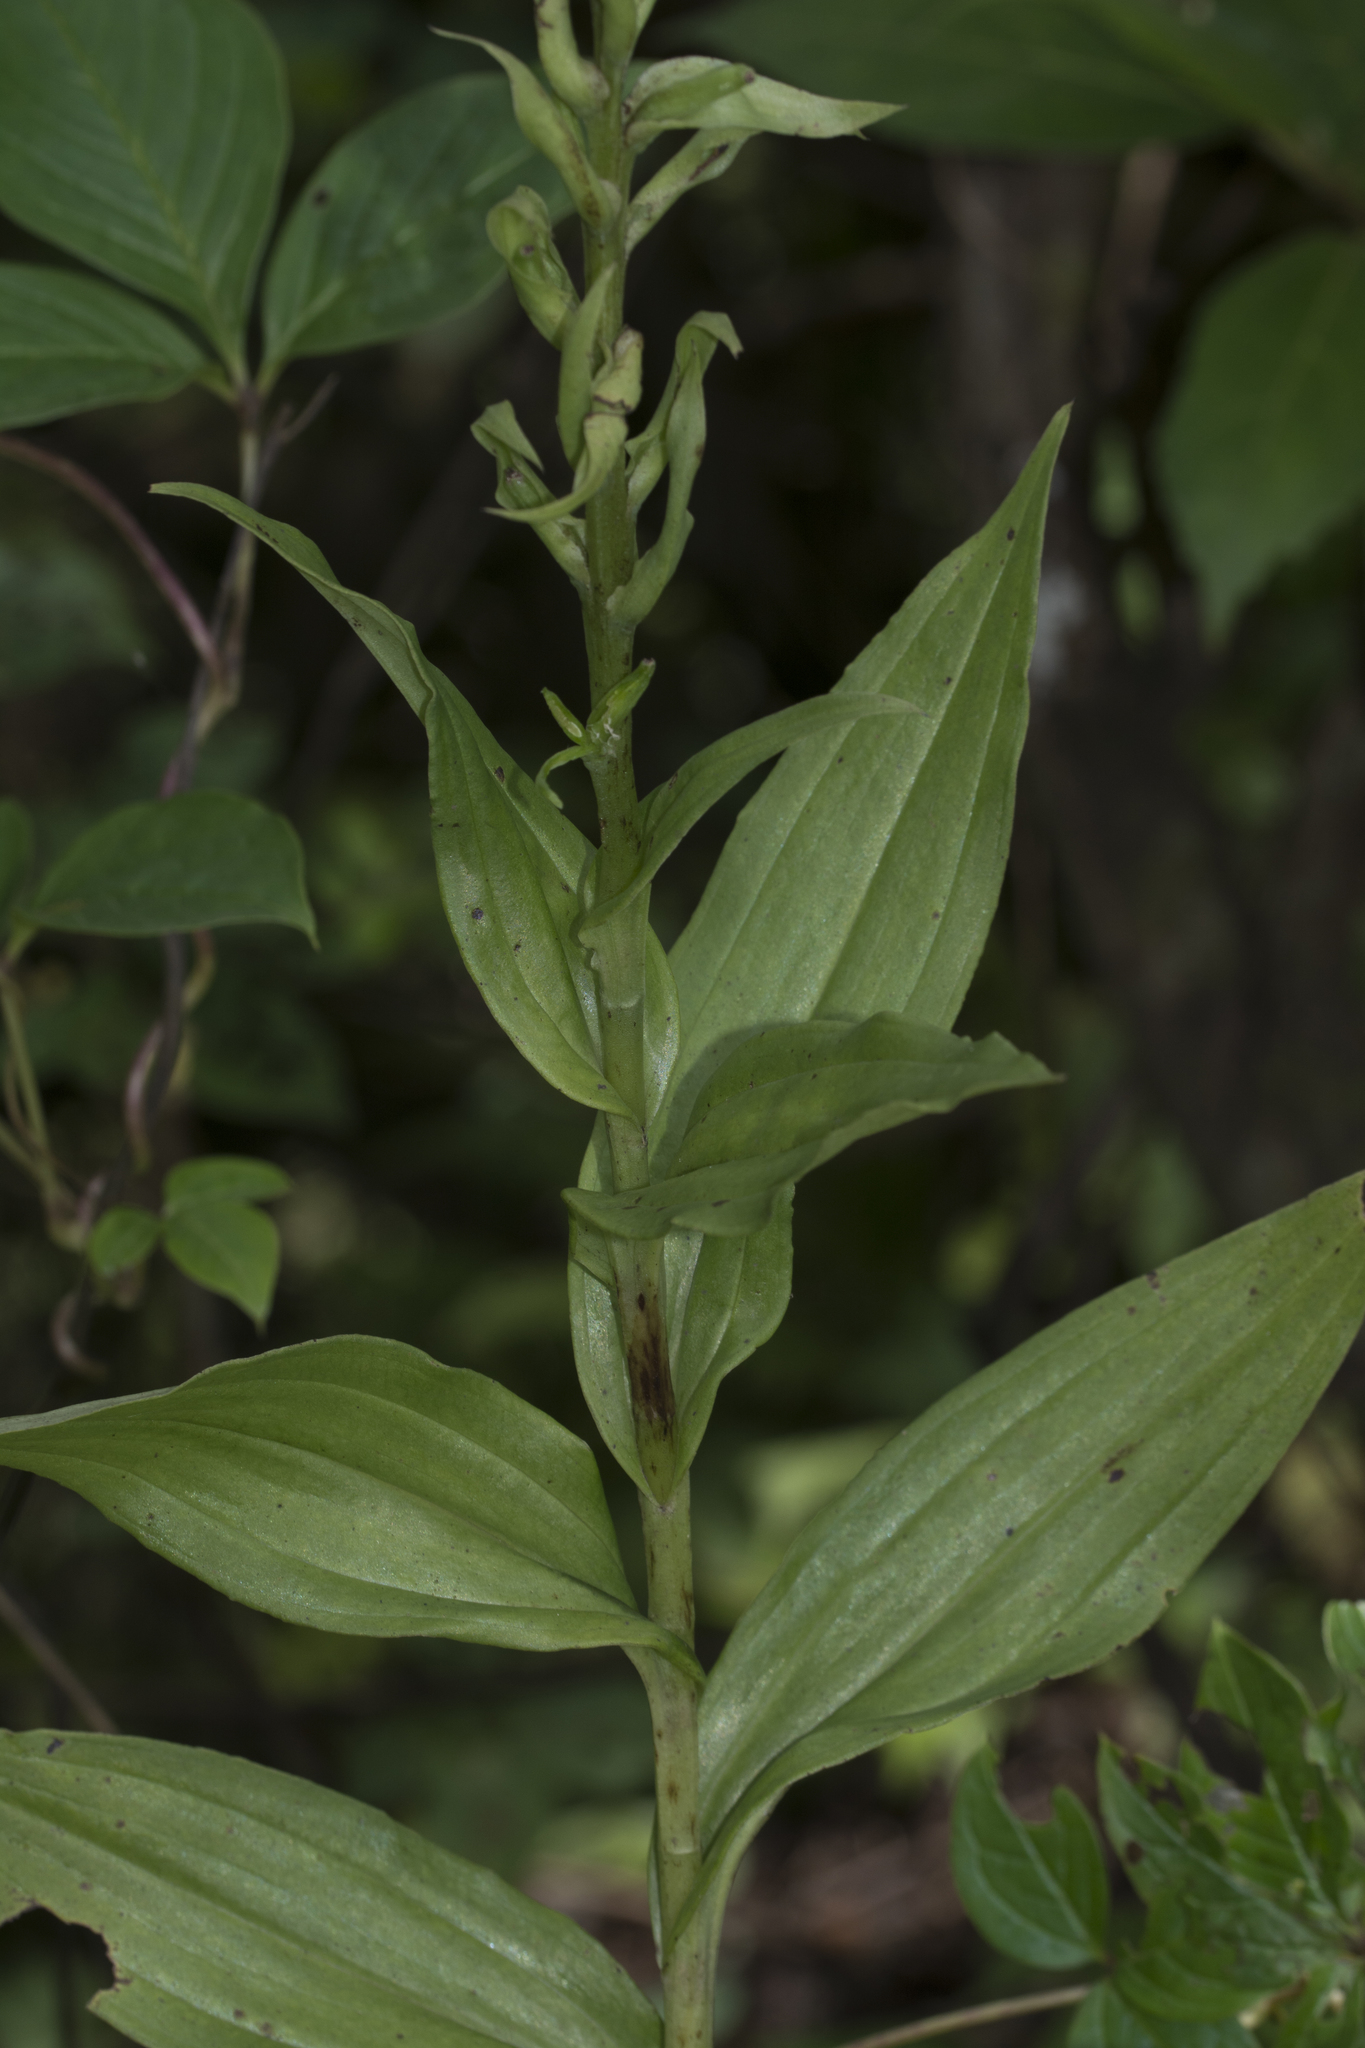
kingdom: Plantae
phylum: Tracheophyta
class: Liliopsida
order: Asparagales
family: Orchidaceae
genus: Habenaria
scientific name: Habenaria digitata
